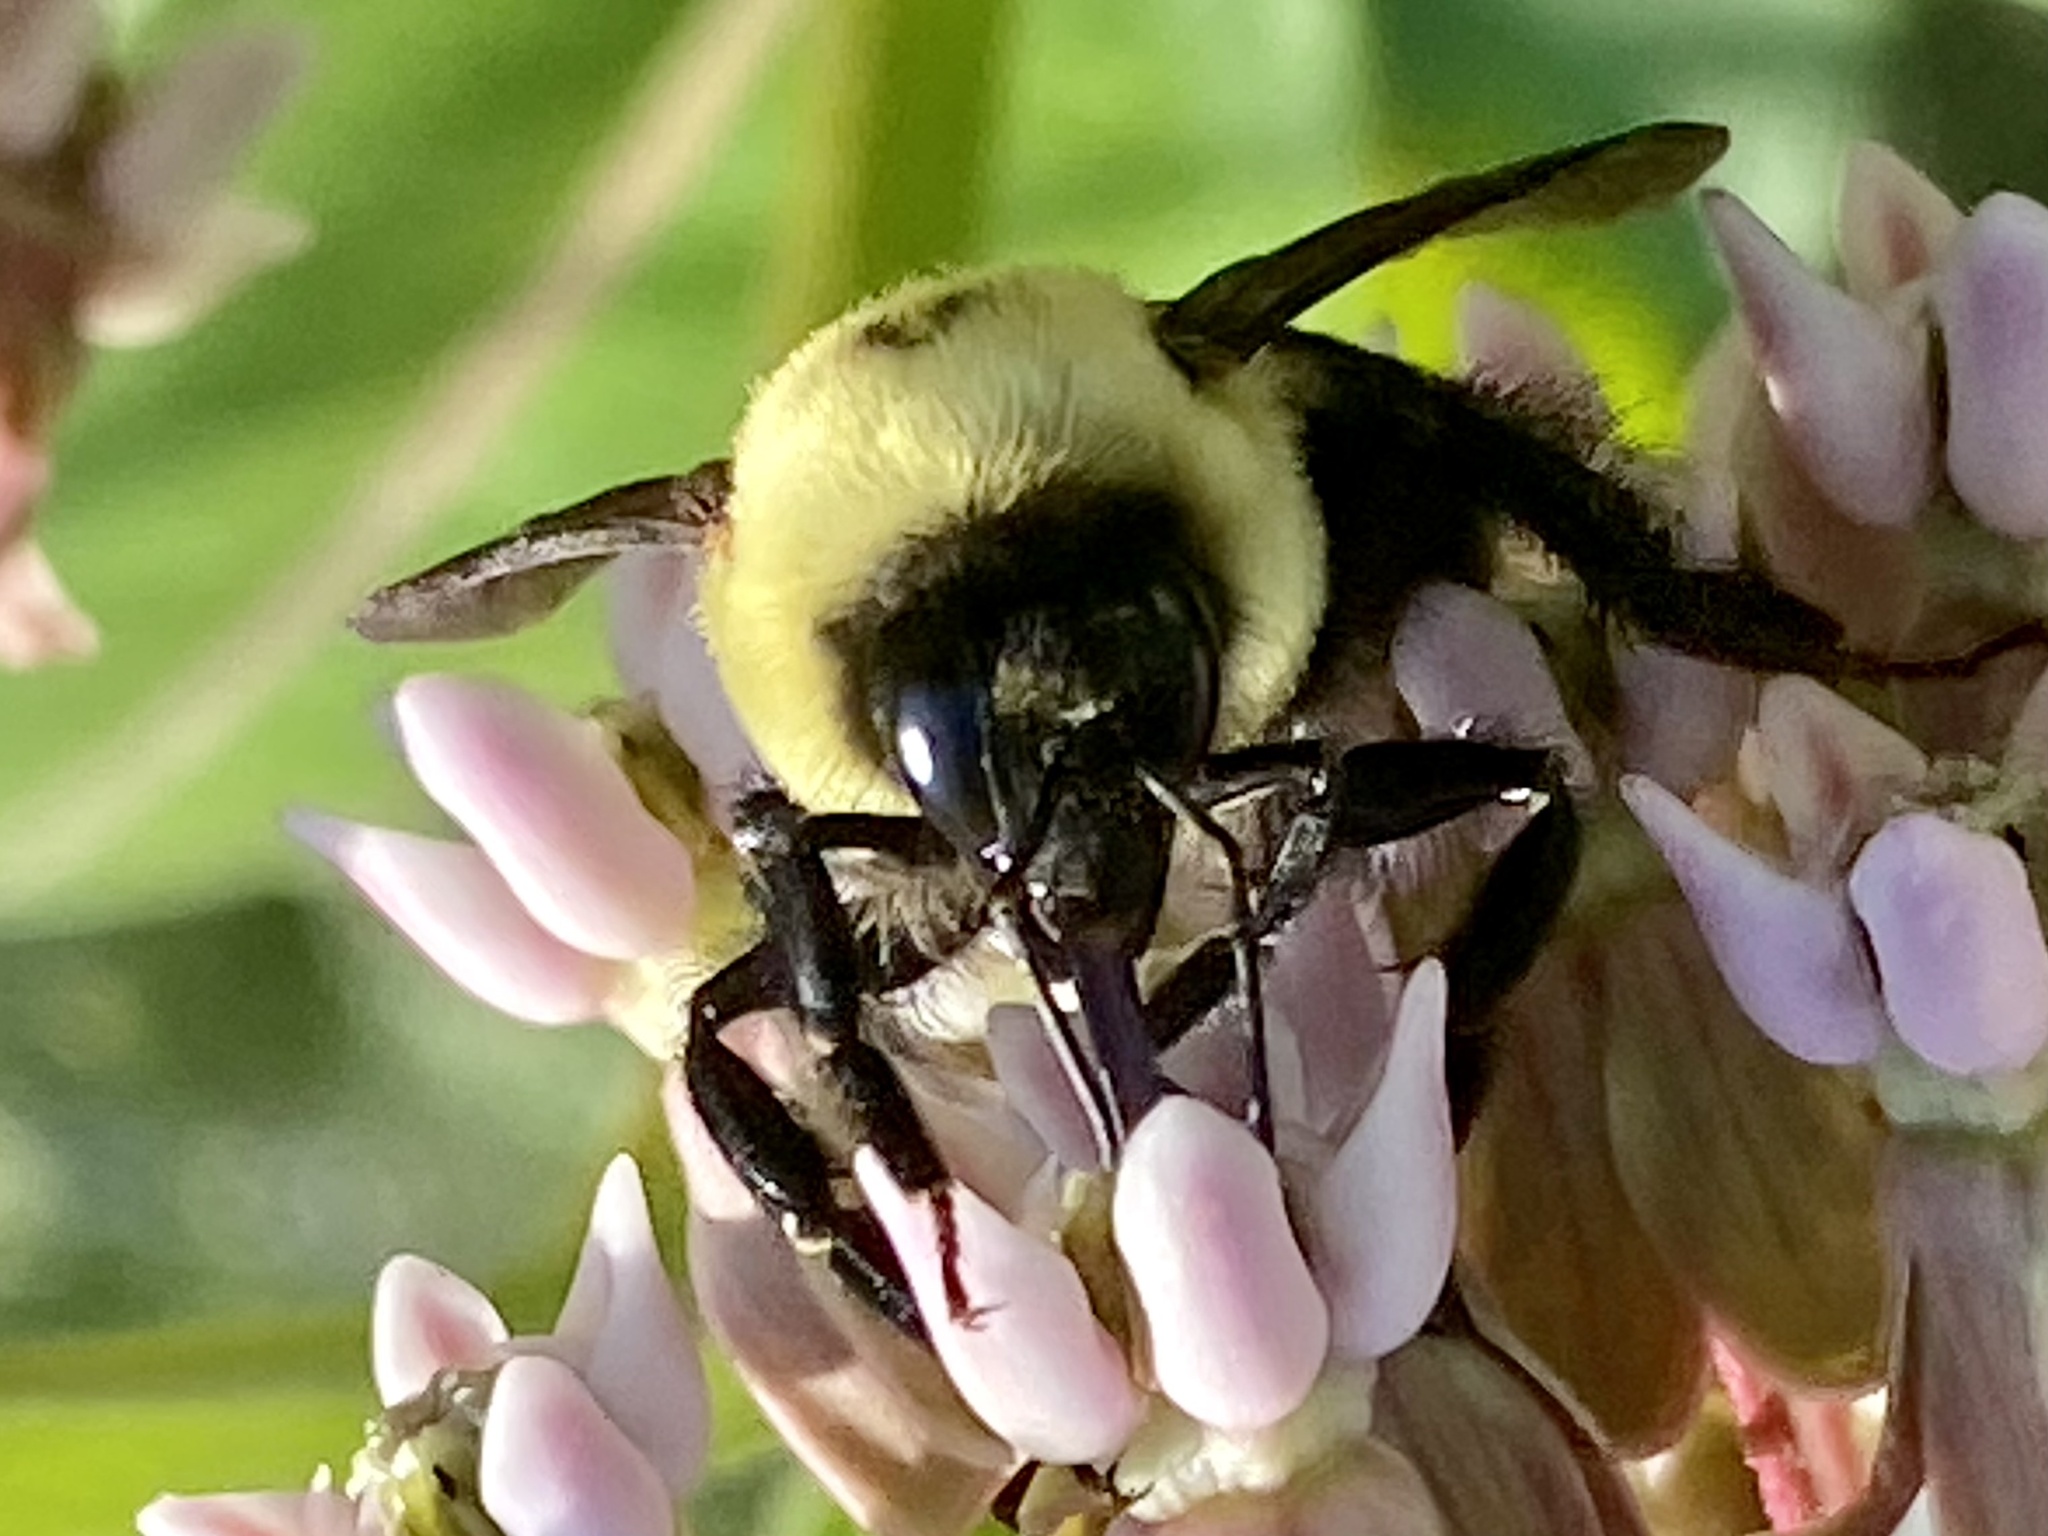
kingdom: Animalia
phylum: Arthropoda
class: Insecta
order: Hymenoptera
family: Apidae
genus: Bombus
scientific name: Bombus griseocollis
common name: Brown-belted bumble bee
